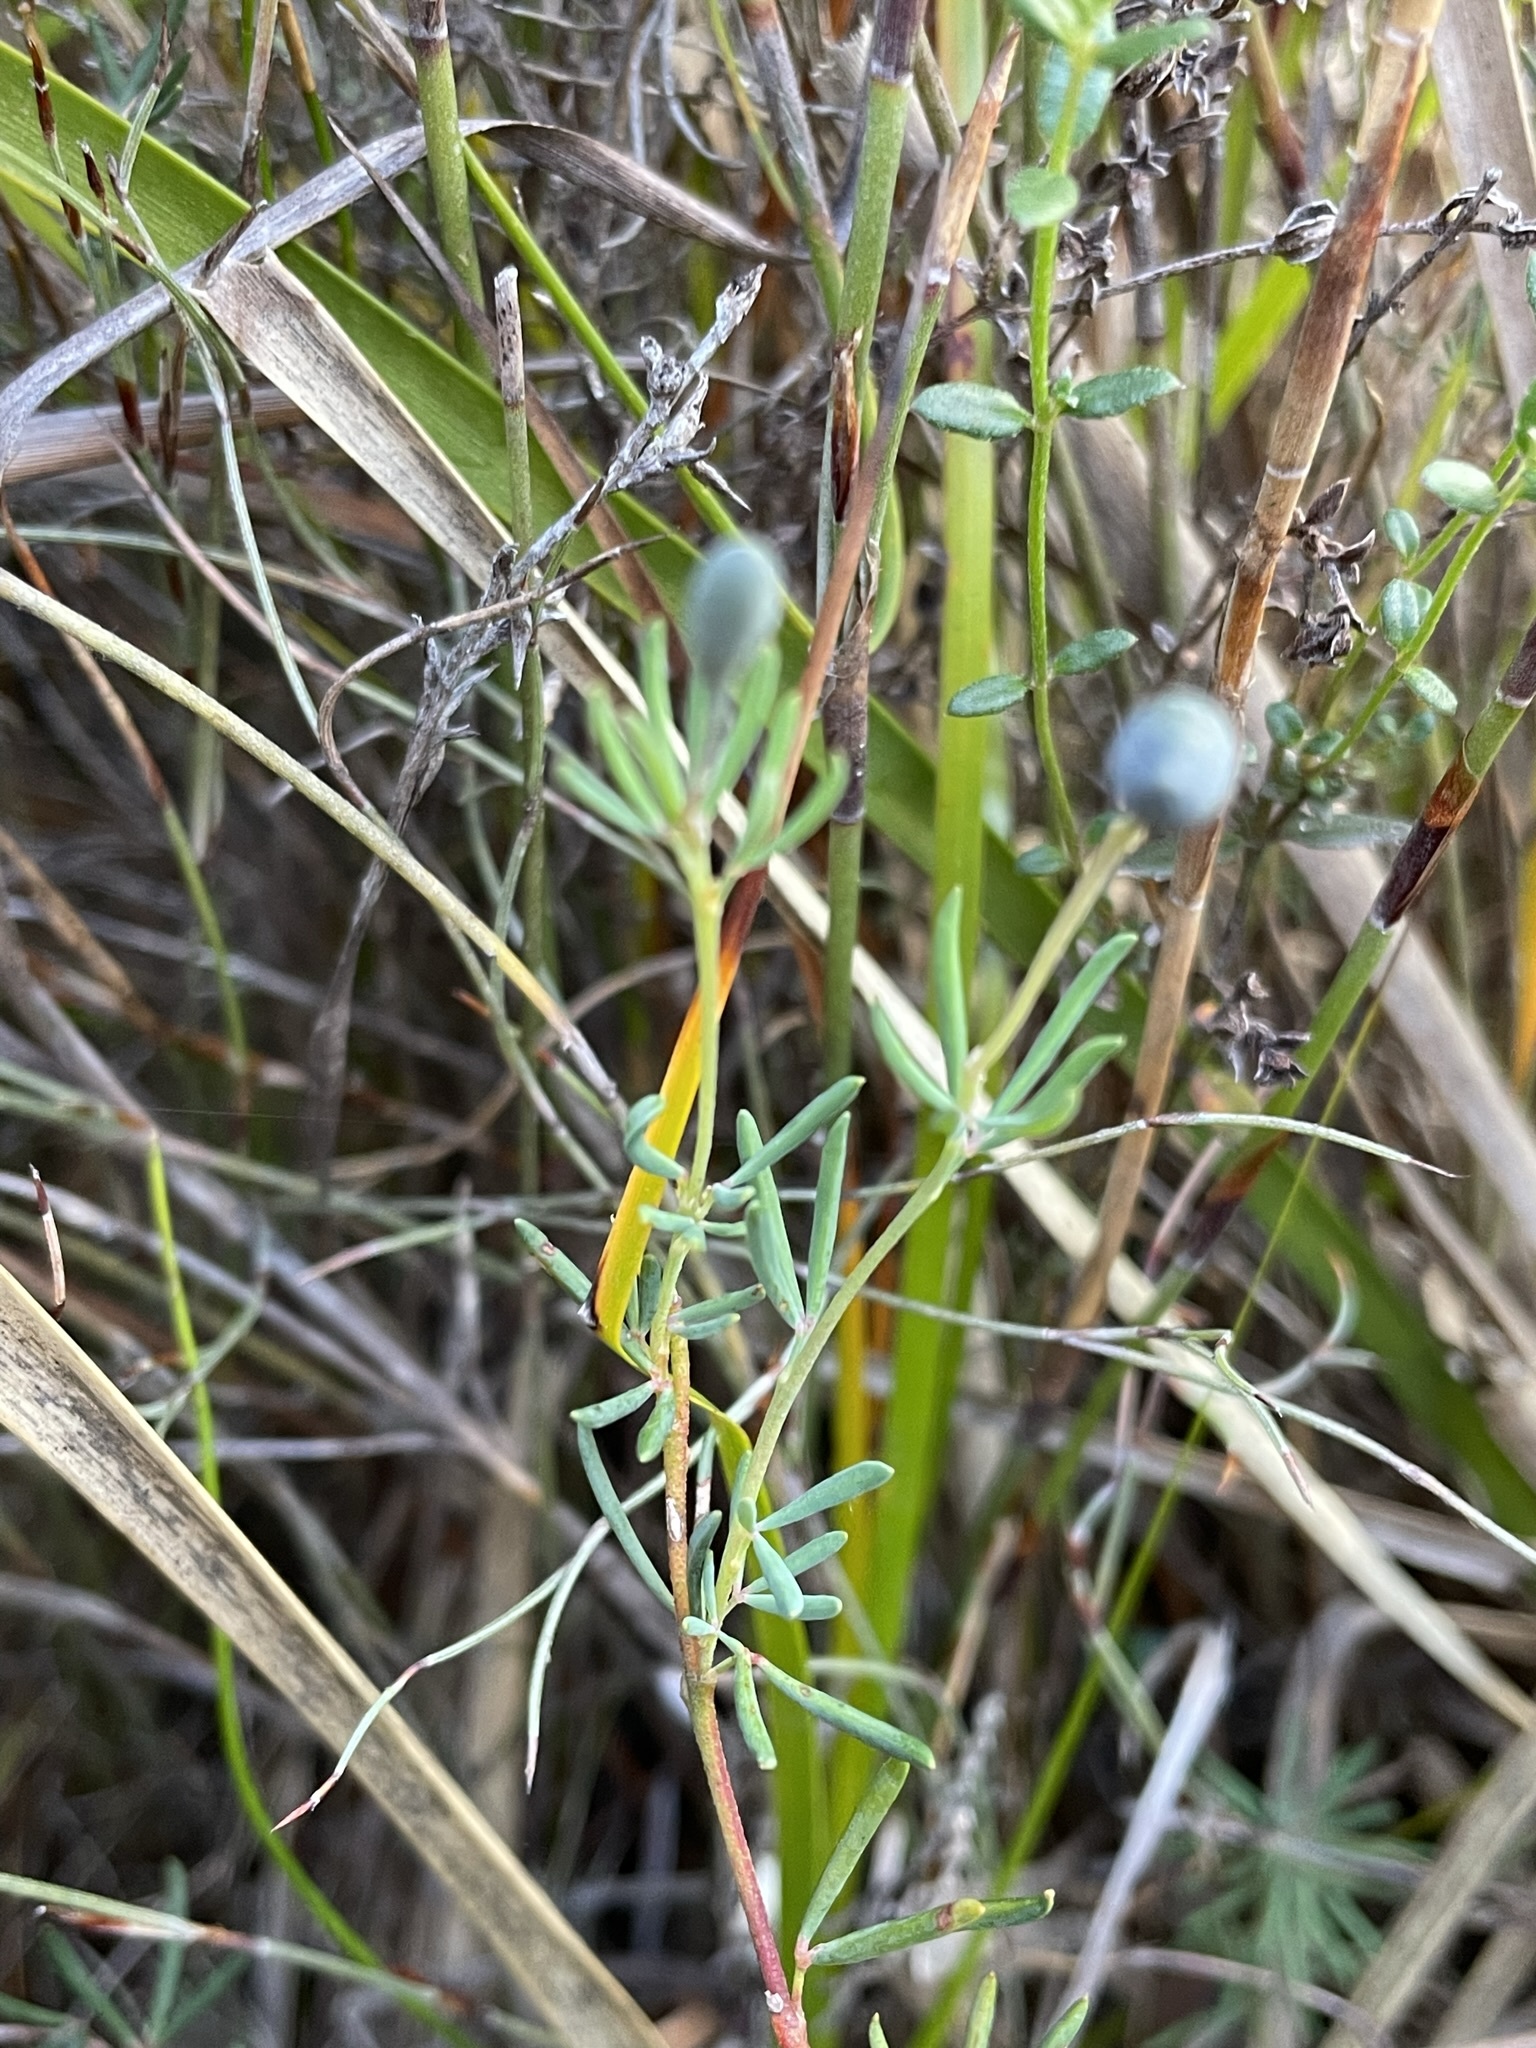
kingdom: Plantae
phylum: Tracheophyta
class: Magnoliopsida
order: Fabales
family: Fabaceae
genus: Gompholobium
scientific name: Gompholobium huegelii
